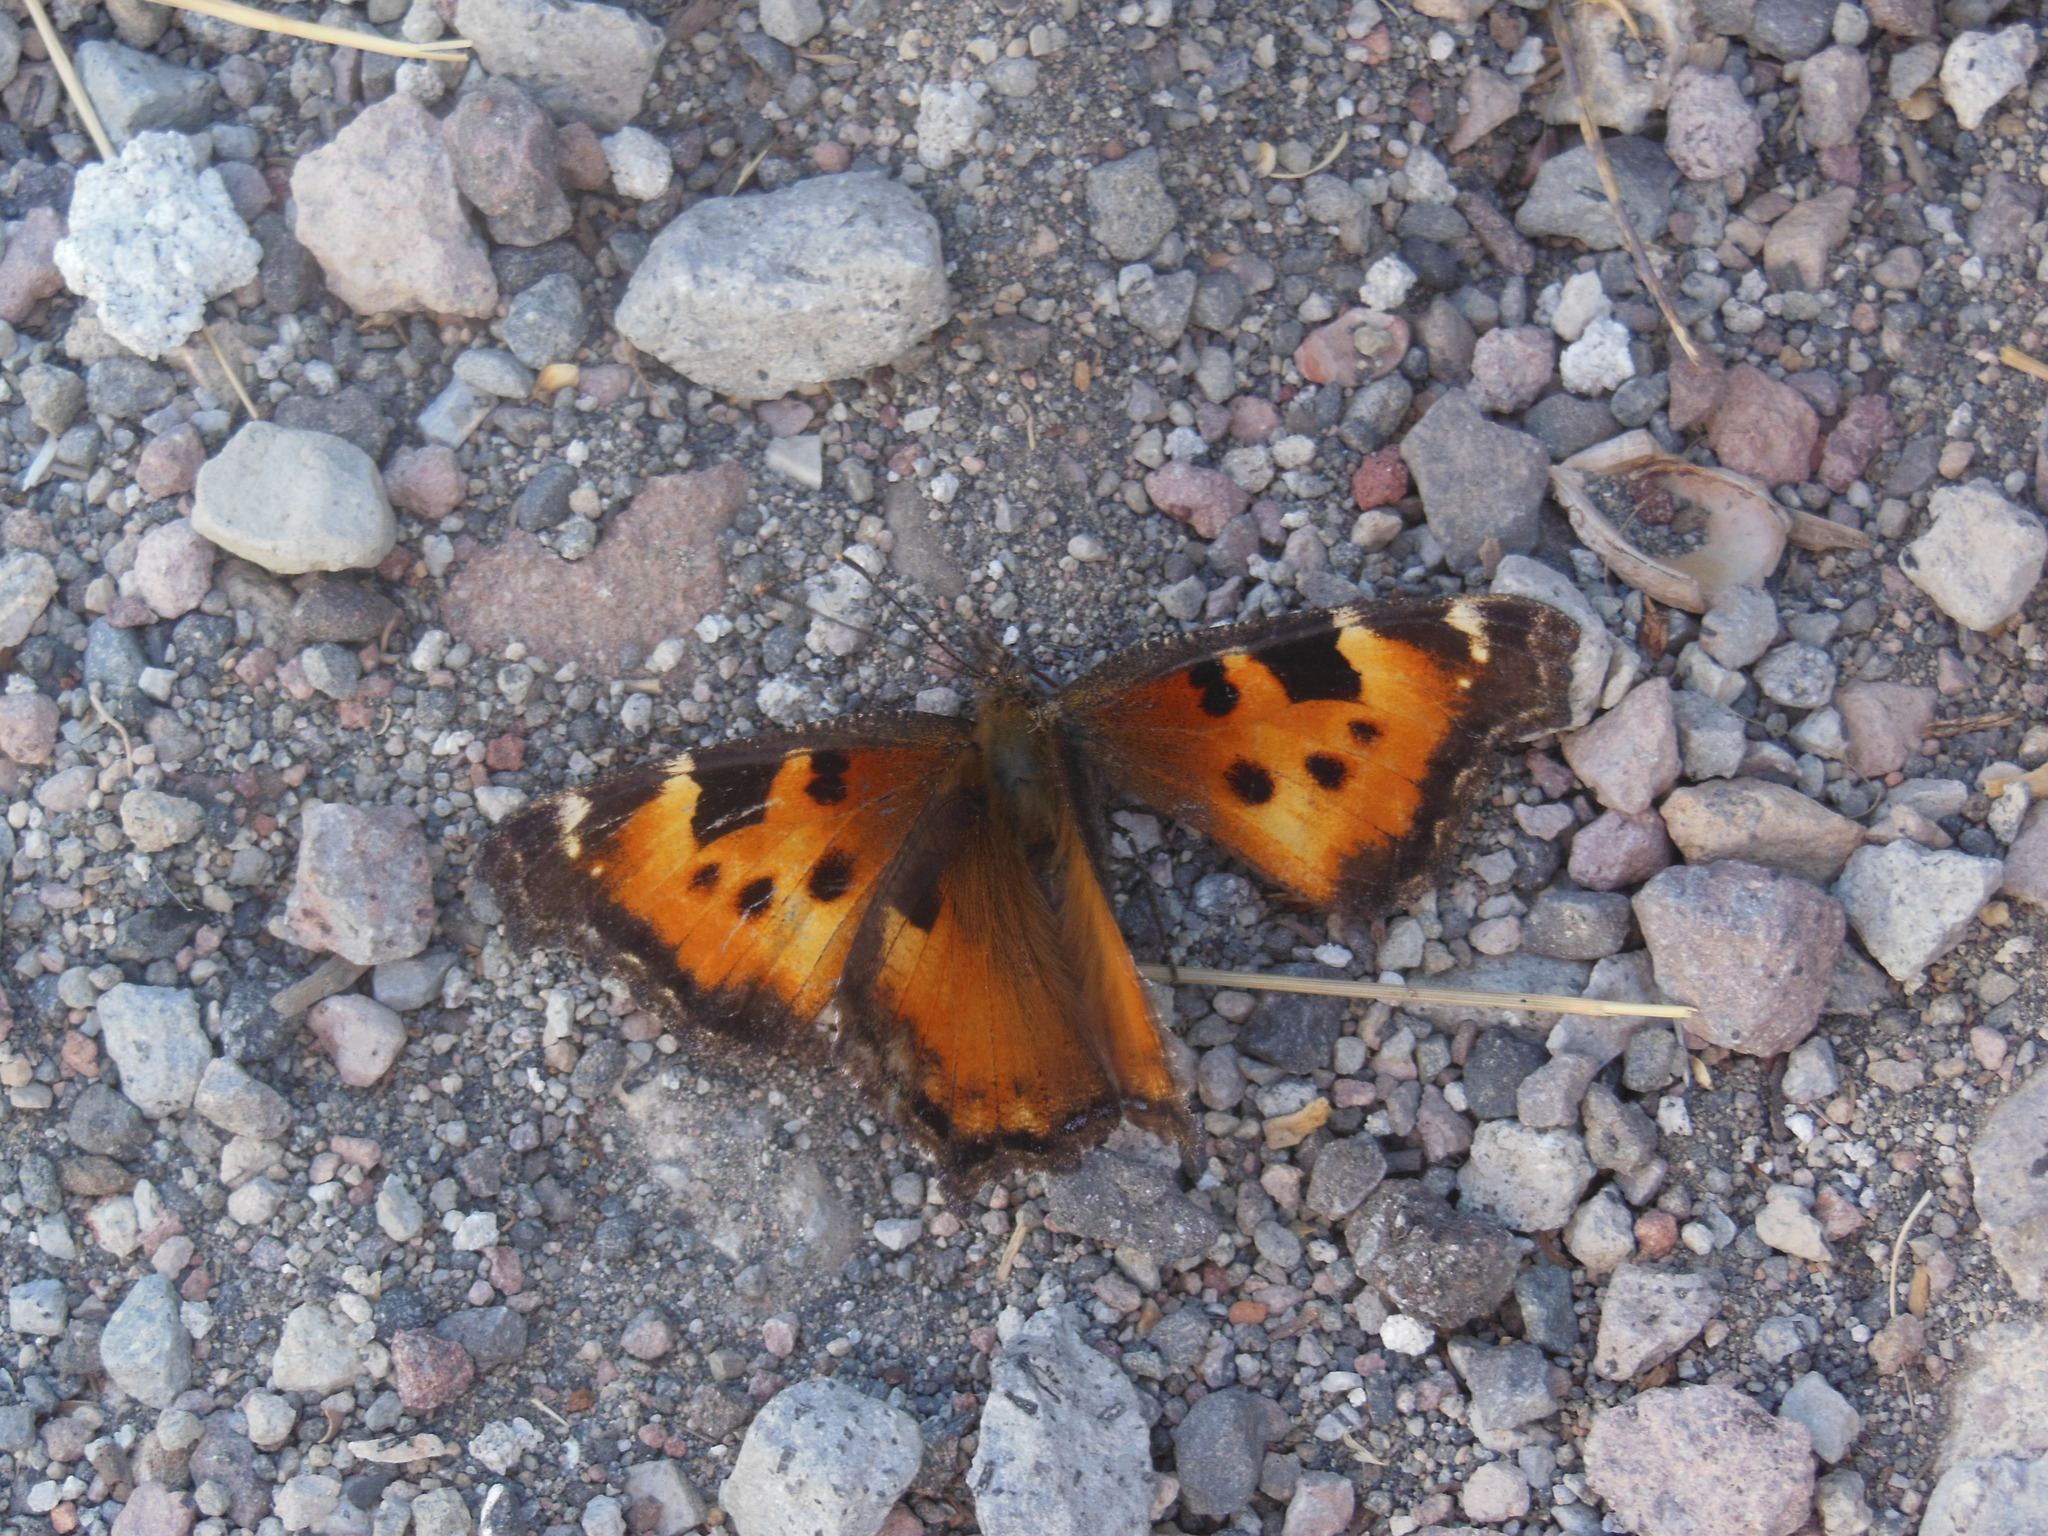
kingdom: Animalia
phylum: Arthropoda
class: Insecta
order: Lepidoptera
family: Nymphalidae
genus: Nymphalis
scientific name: Nymphalis californica
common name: California tortoiseshell
